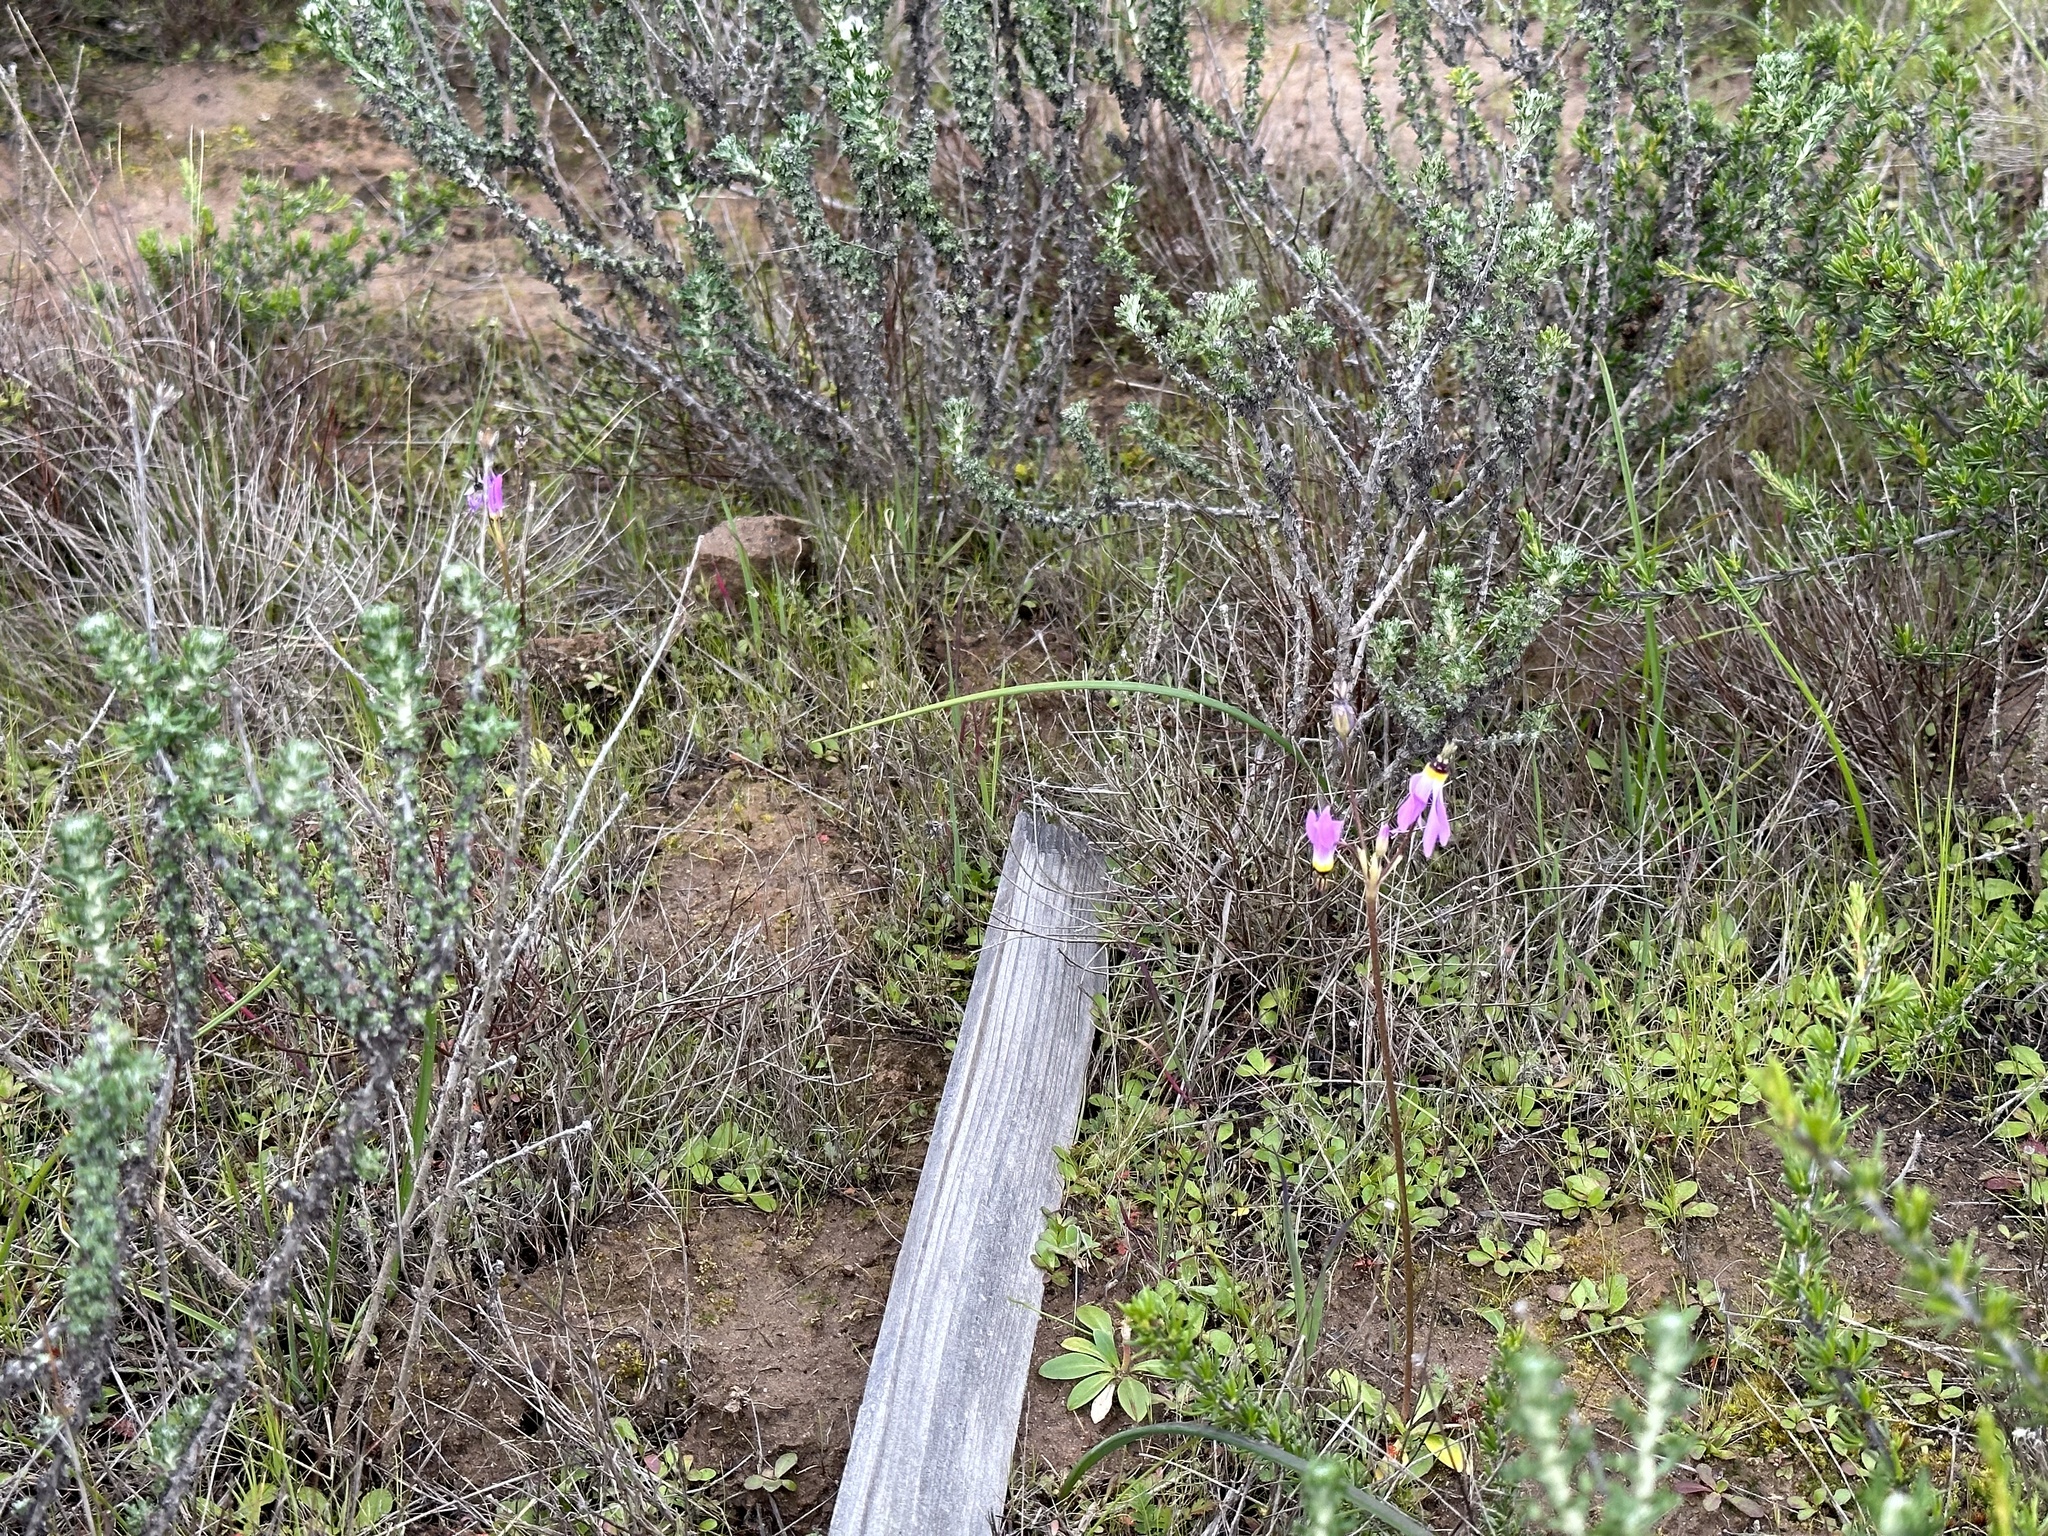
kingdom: Plantae
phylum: Tracheophyta
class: Magnoliopsida
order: Ericales
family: Primulaceae
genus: Dodecatheon
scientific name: Dodecatheon clevelandii
